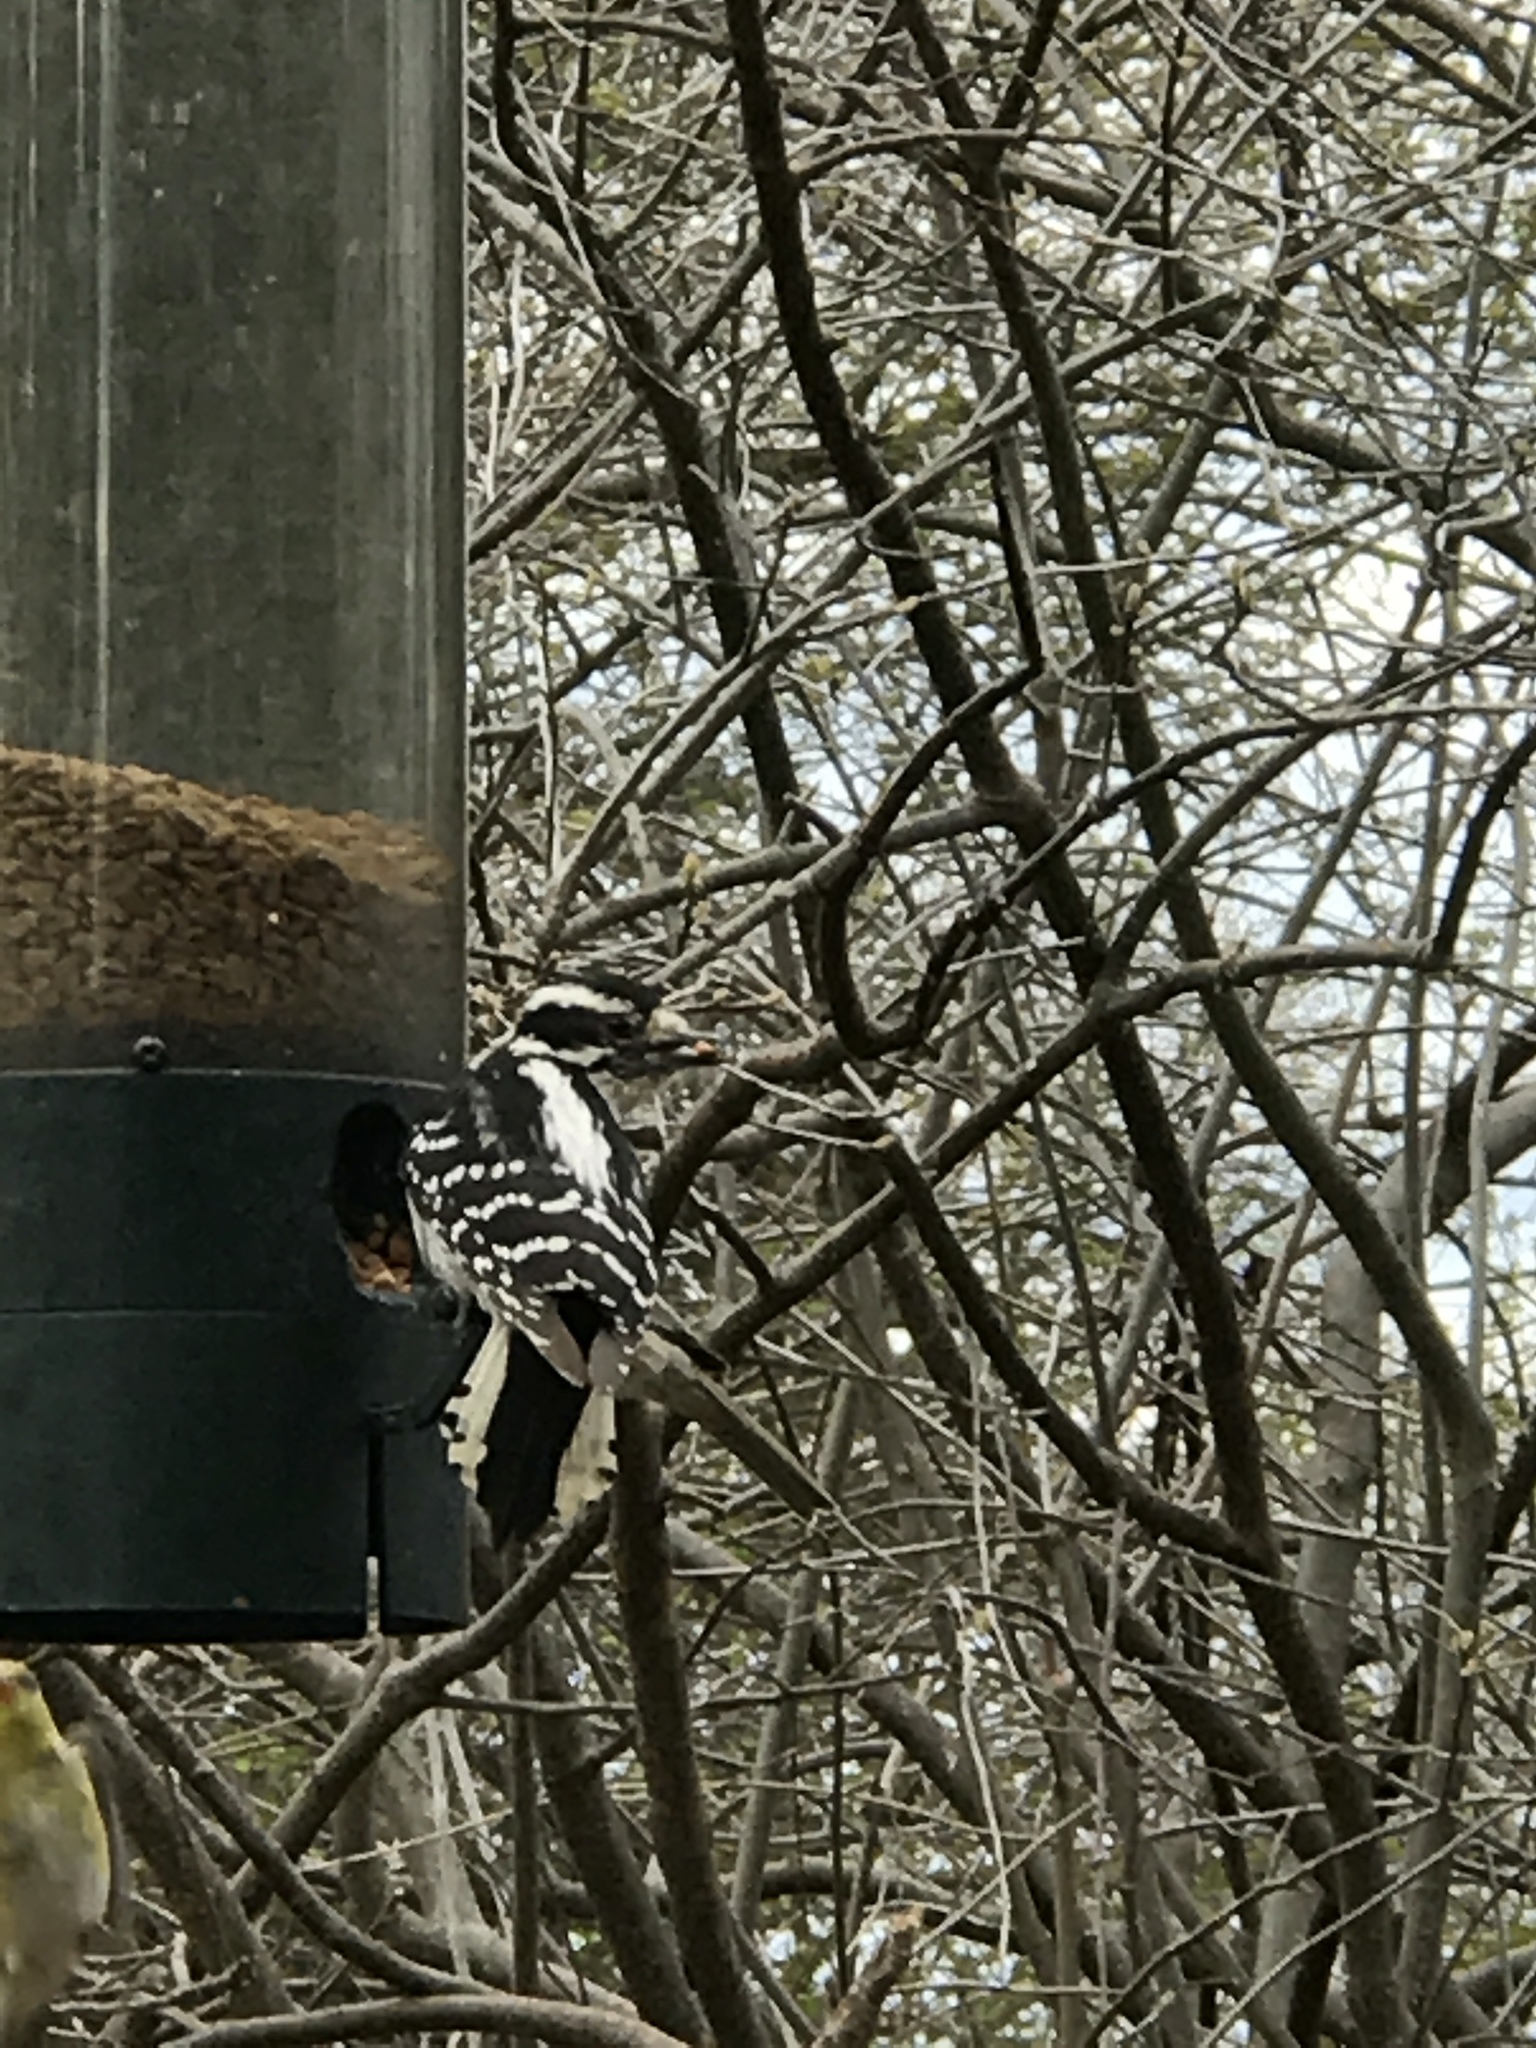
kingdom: Animalia
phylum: Chordata
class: Aves
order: Piciformes
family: Picidae
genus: Dryobates
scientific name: Dryobates pubescens
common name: Downy woodpecker
